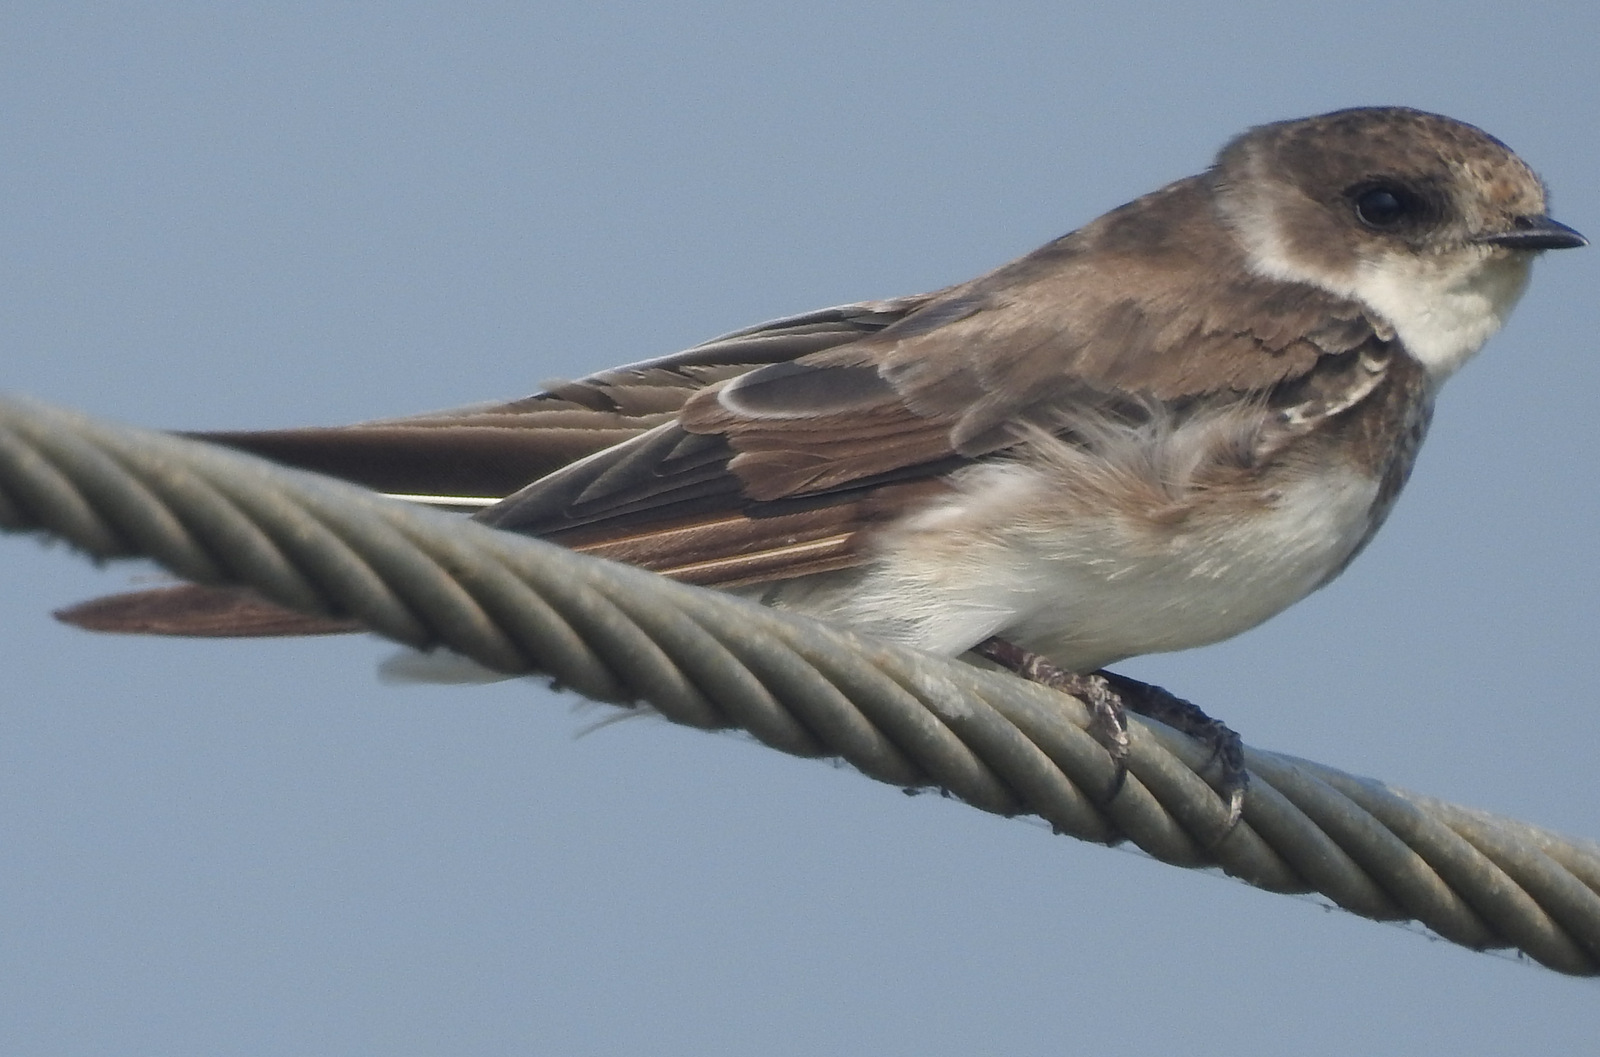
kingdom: Animalia
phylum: Chordata
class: Aves
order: Passeriformes
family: Hirundinidae
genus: Riparia
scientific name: Riparia riparia
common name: Sand martin
